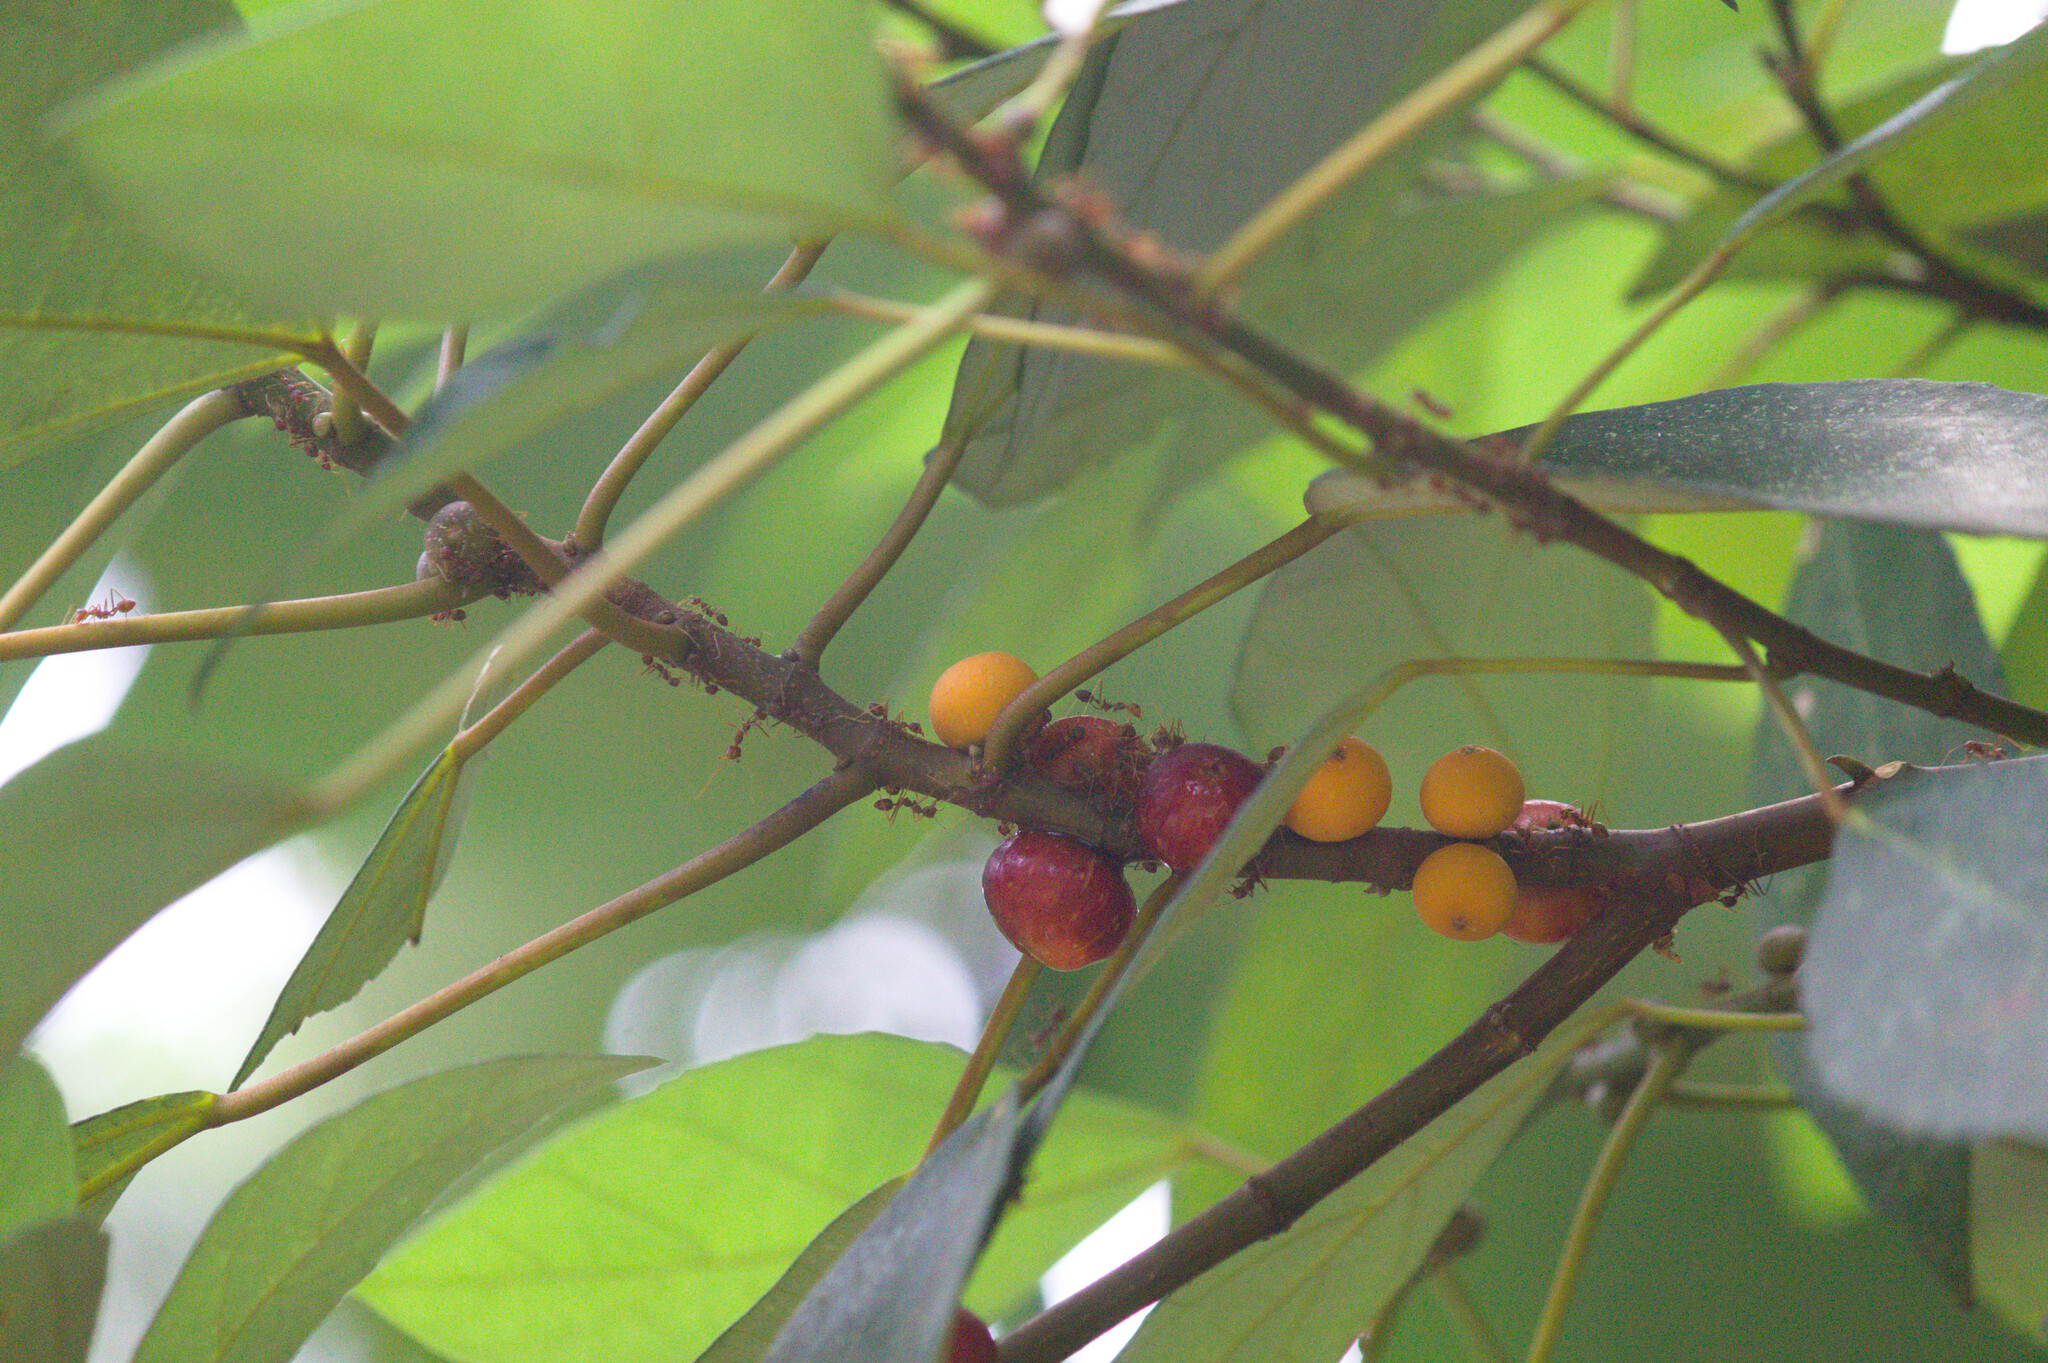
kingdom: Plantae
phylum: Tracheophyta
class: Magnoliopsida
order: Rosales
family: Moraceae
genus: Ficus
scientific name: Ficus grossularioides
